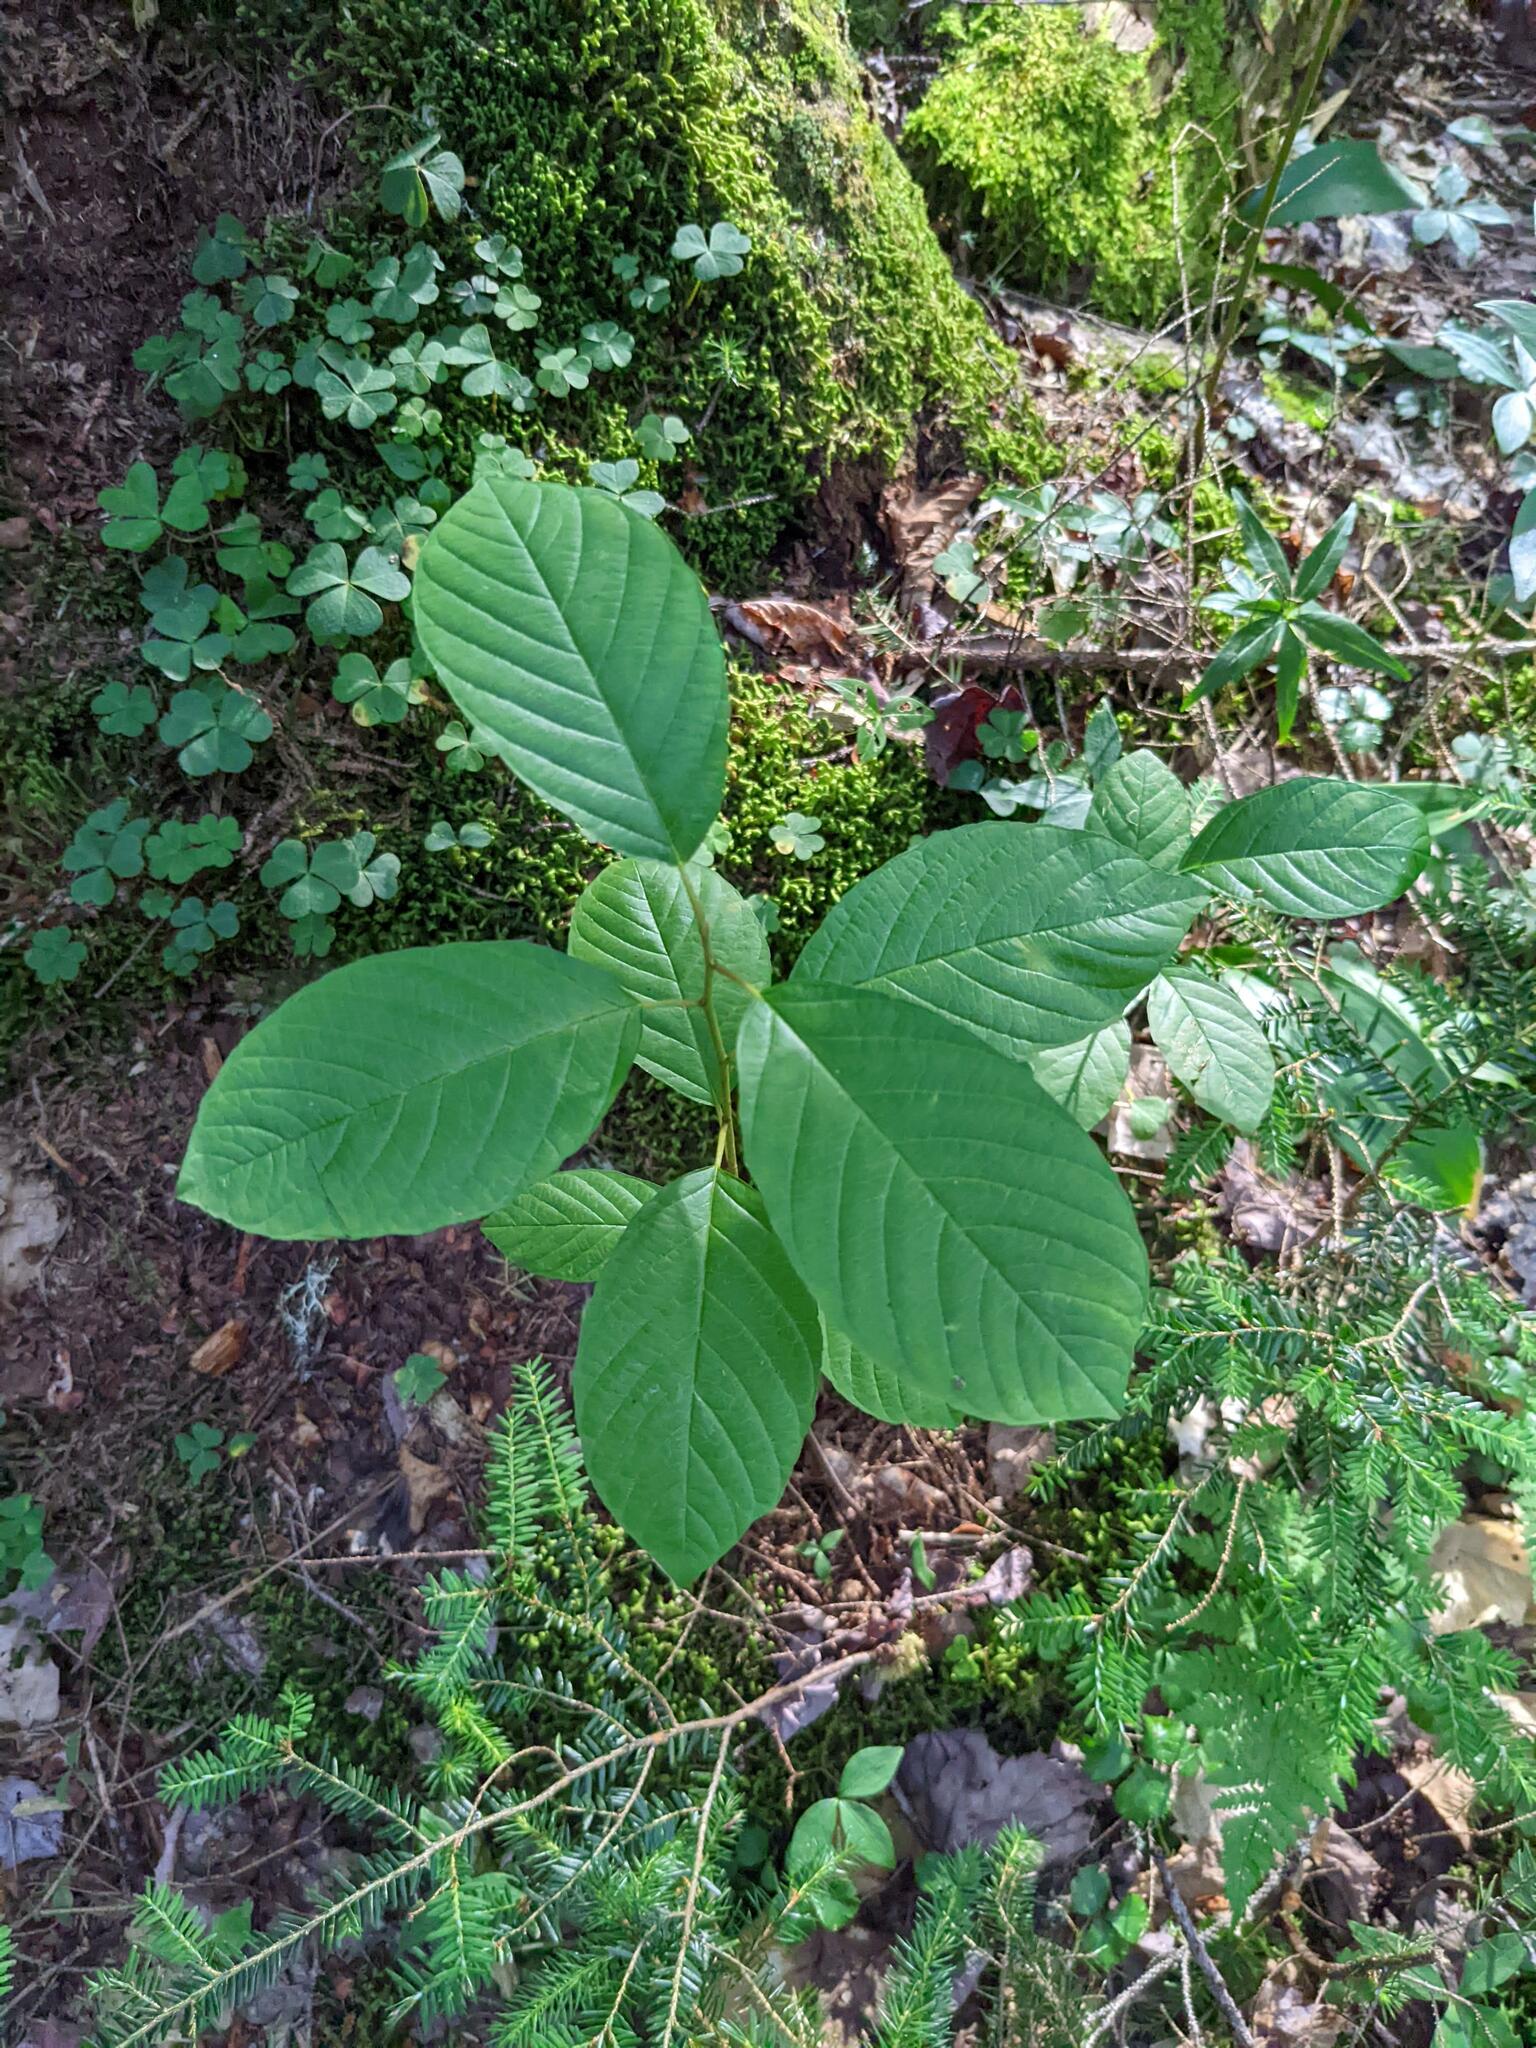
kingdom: Plantae
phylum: Tracheophyta
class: Magnoliopsida
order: Rosales
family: Rhamnaceae
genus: Frangula
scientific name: Frangula alnus
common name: Alder buckthorn
